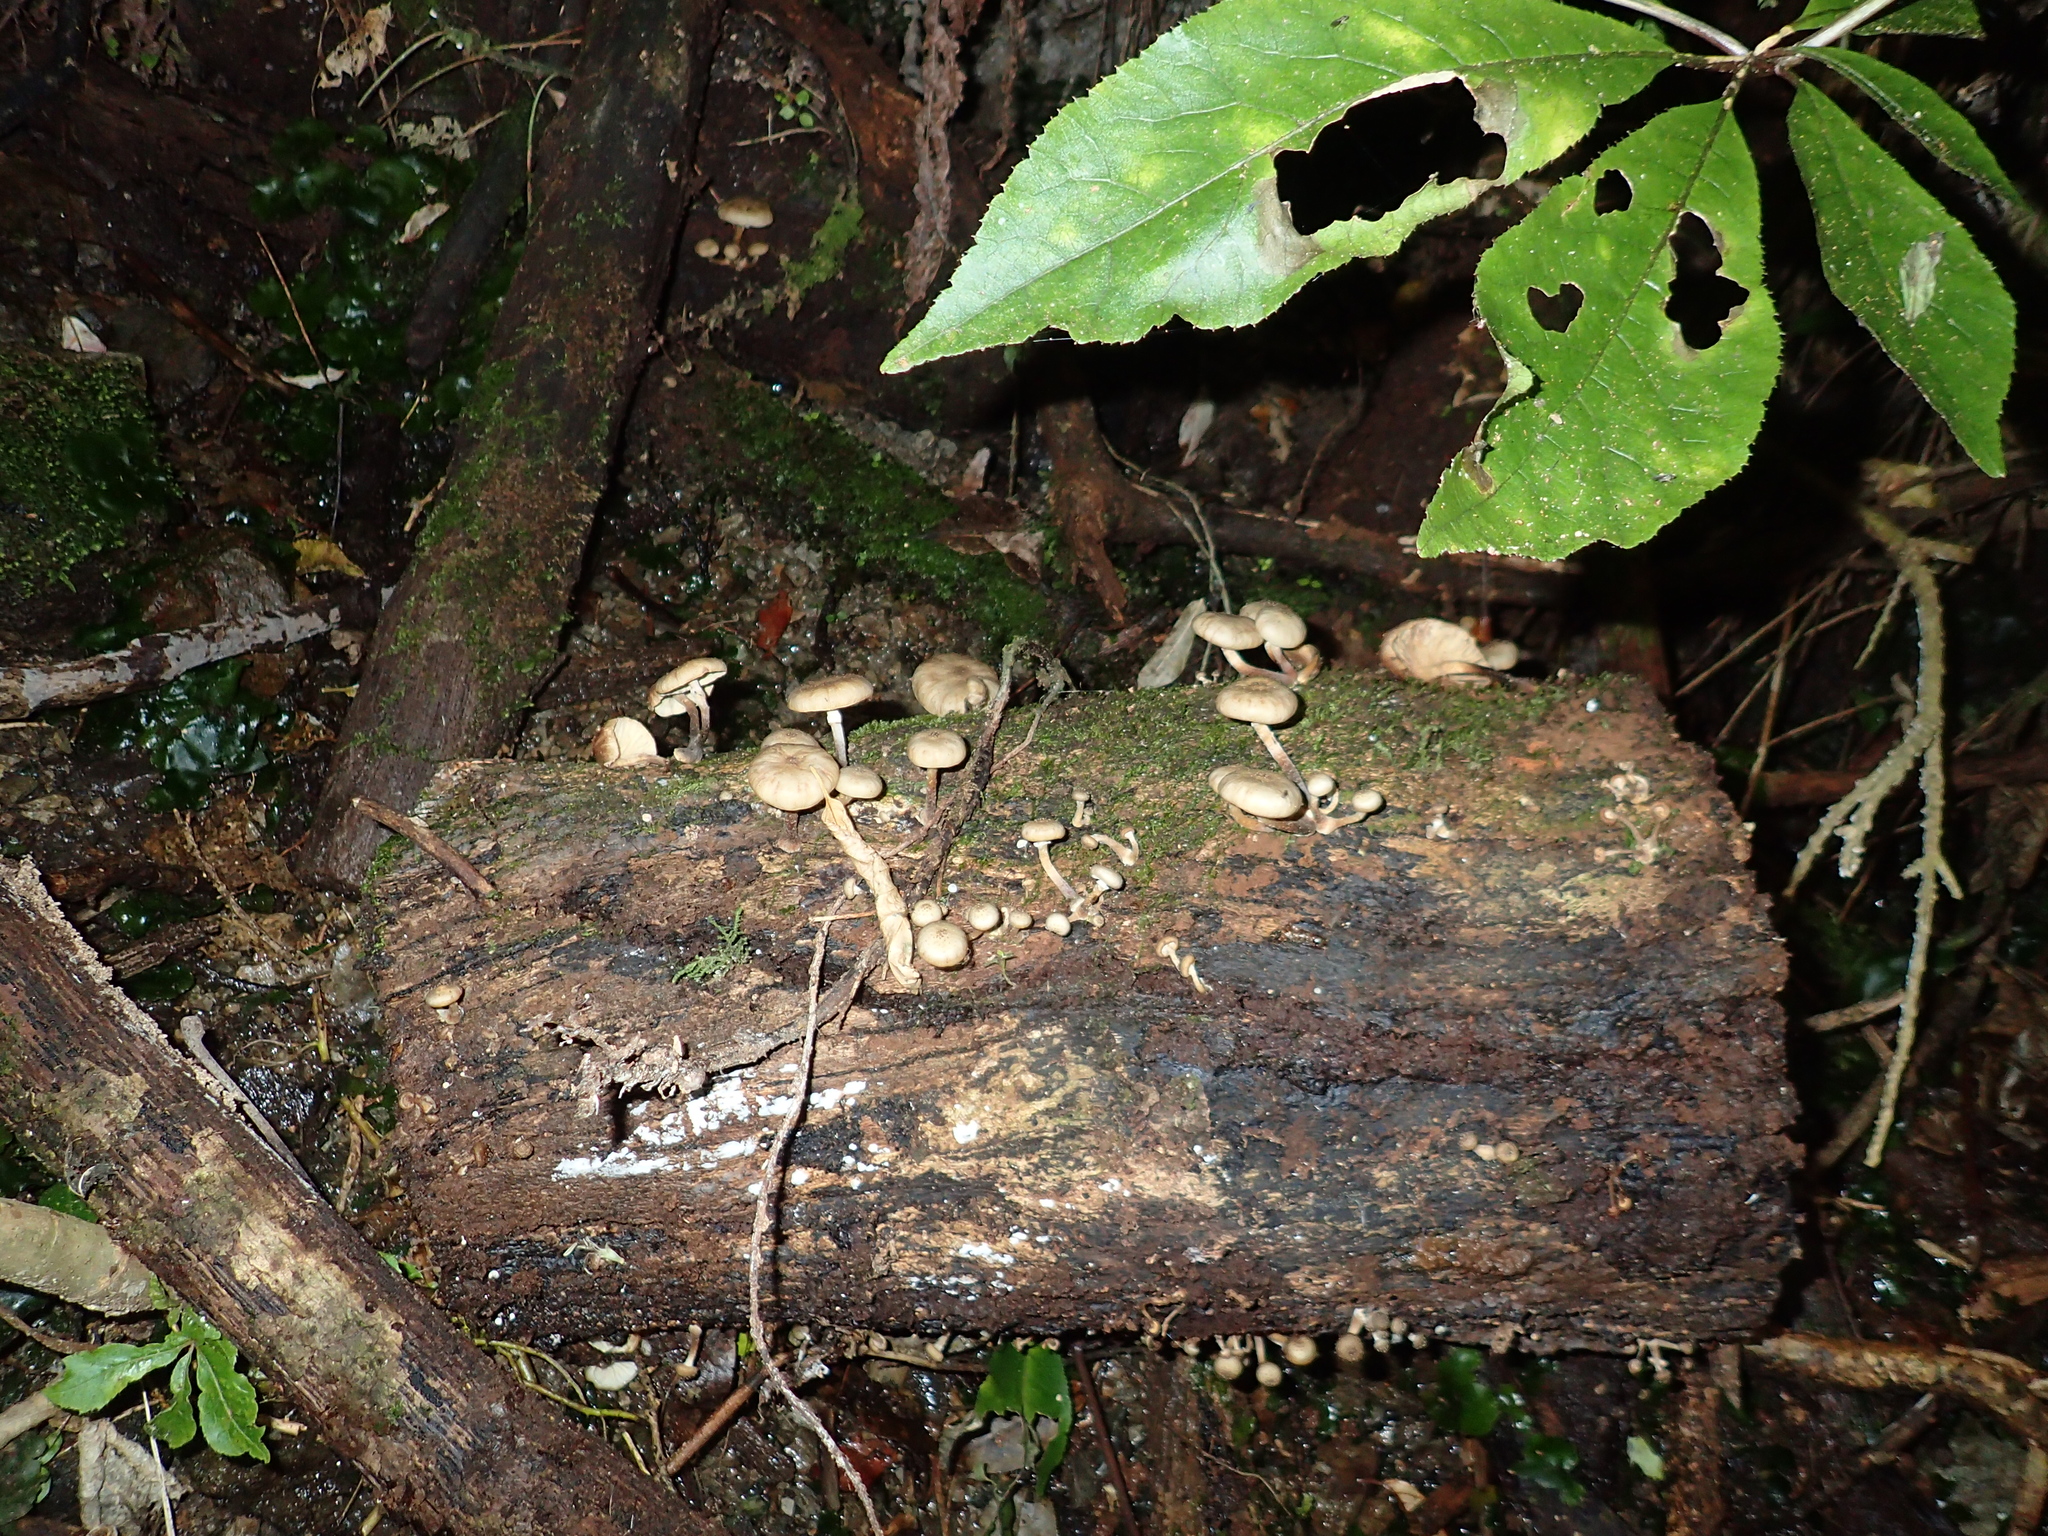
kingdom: Fungi
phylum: Basidiomycota
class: Agaricomycetes
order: Agaricales
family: Physalacriaceae
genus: Armillaria
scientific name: Armillaria novae-zelandiae
